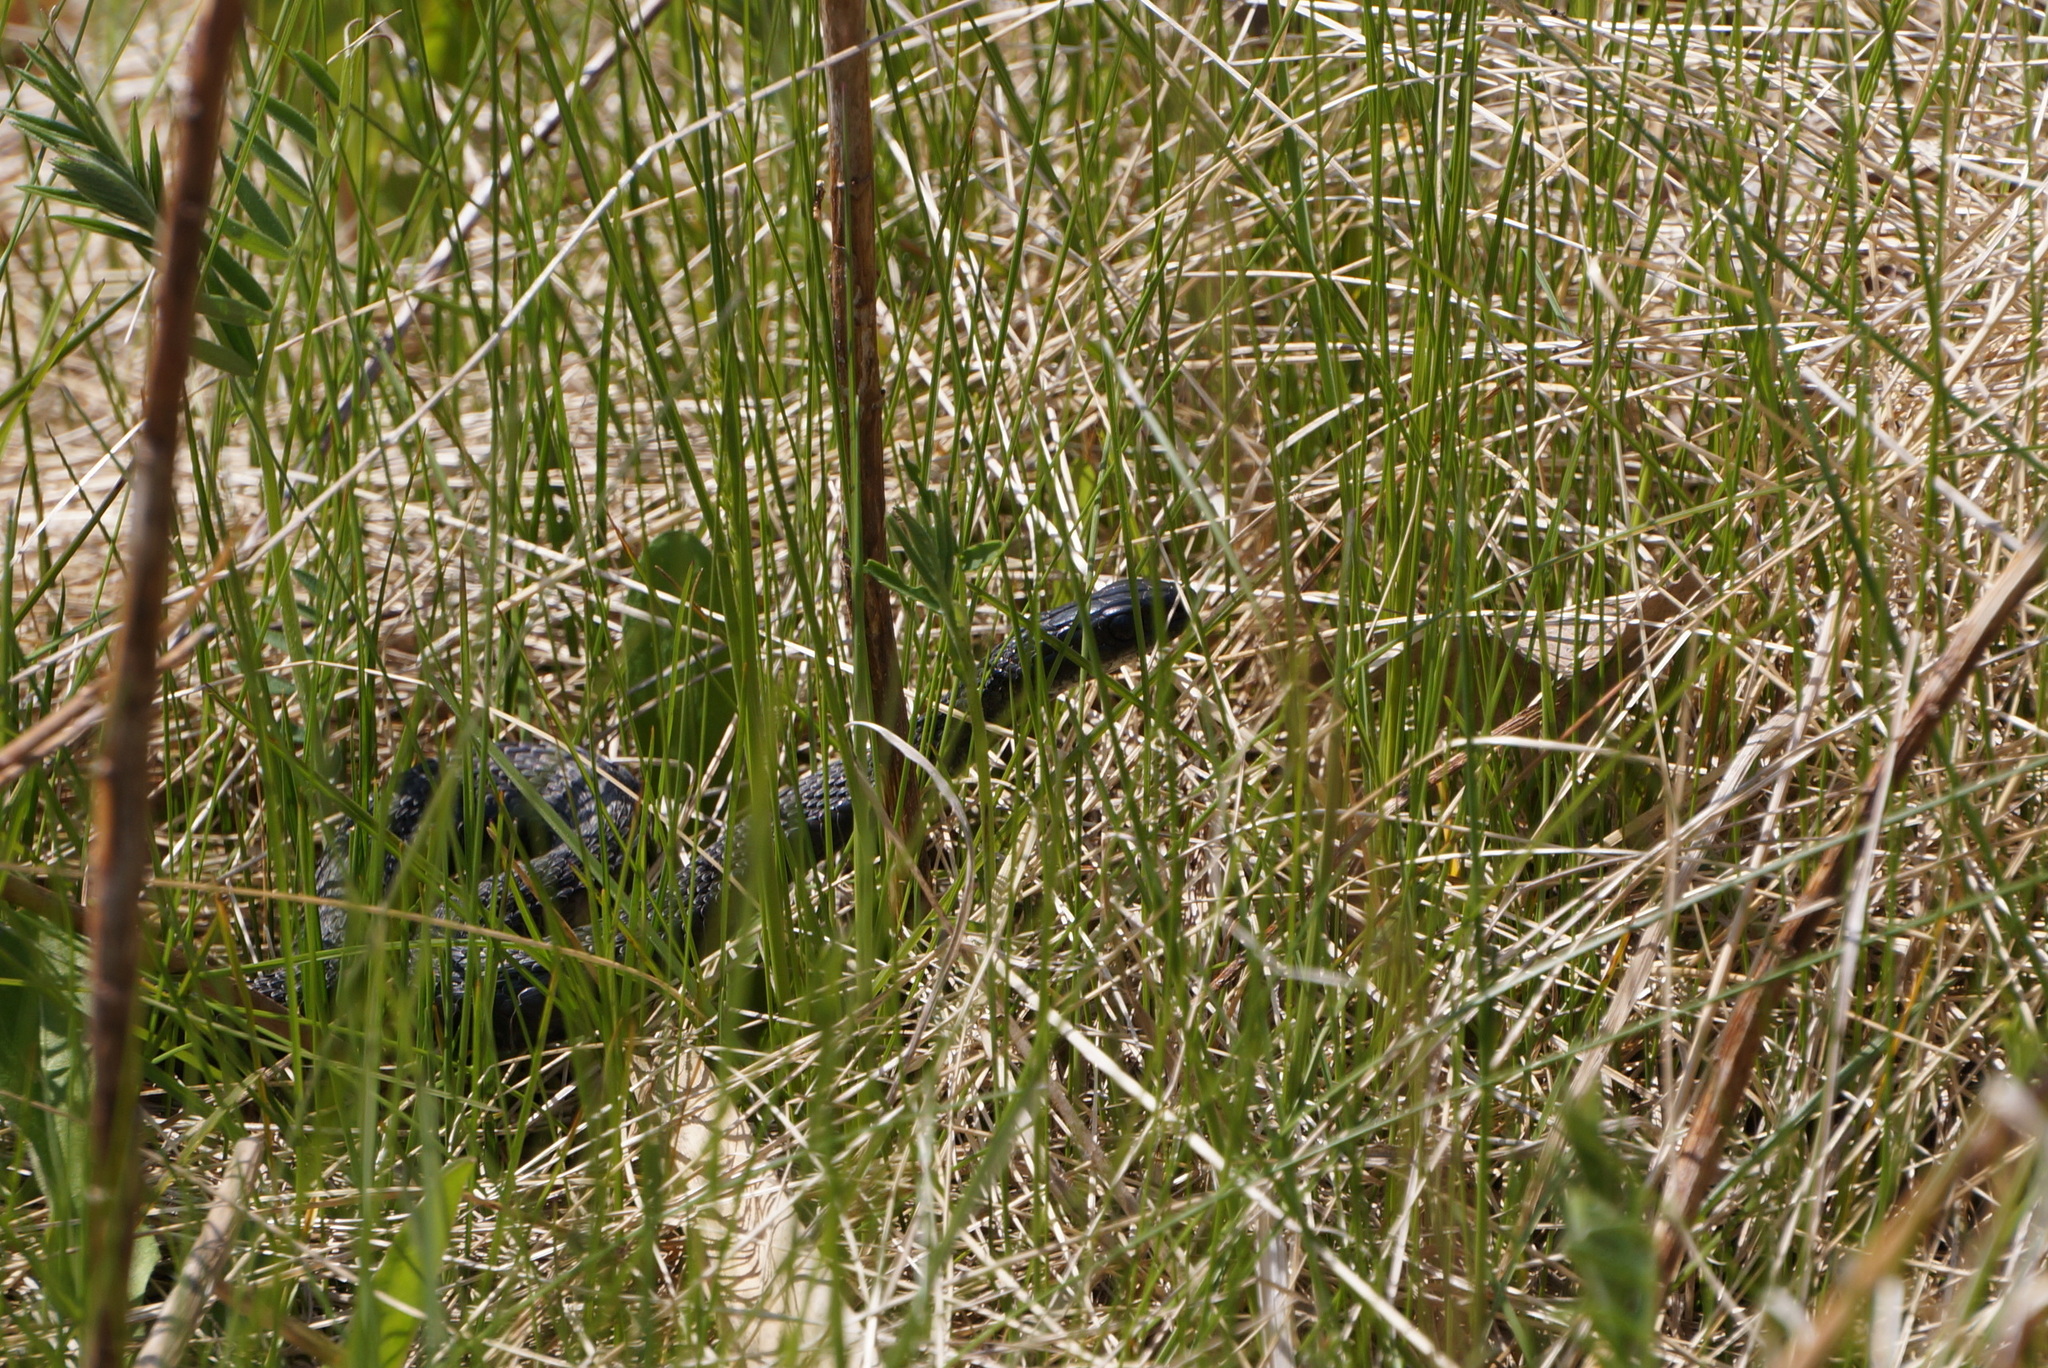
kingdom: Animalia
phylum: Chordata
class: Squamata
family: Colubridae
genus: Thamnophis
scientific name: Thamnophis sirtalis
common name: Common garter snake
